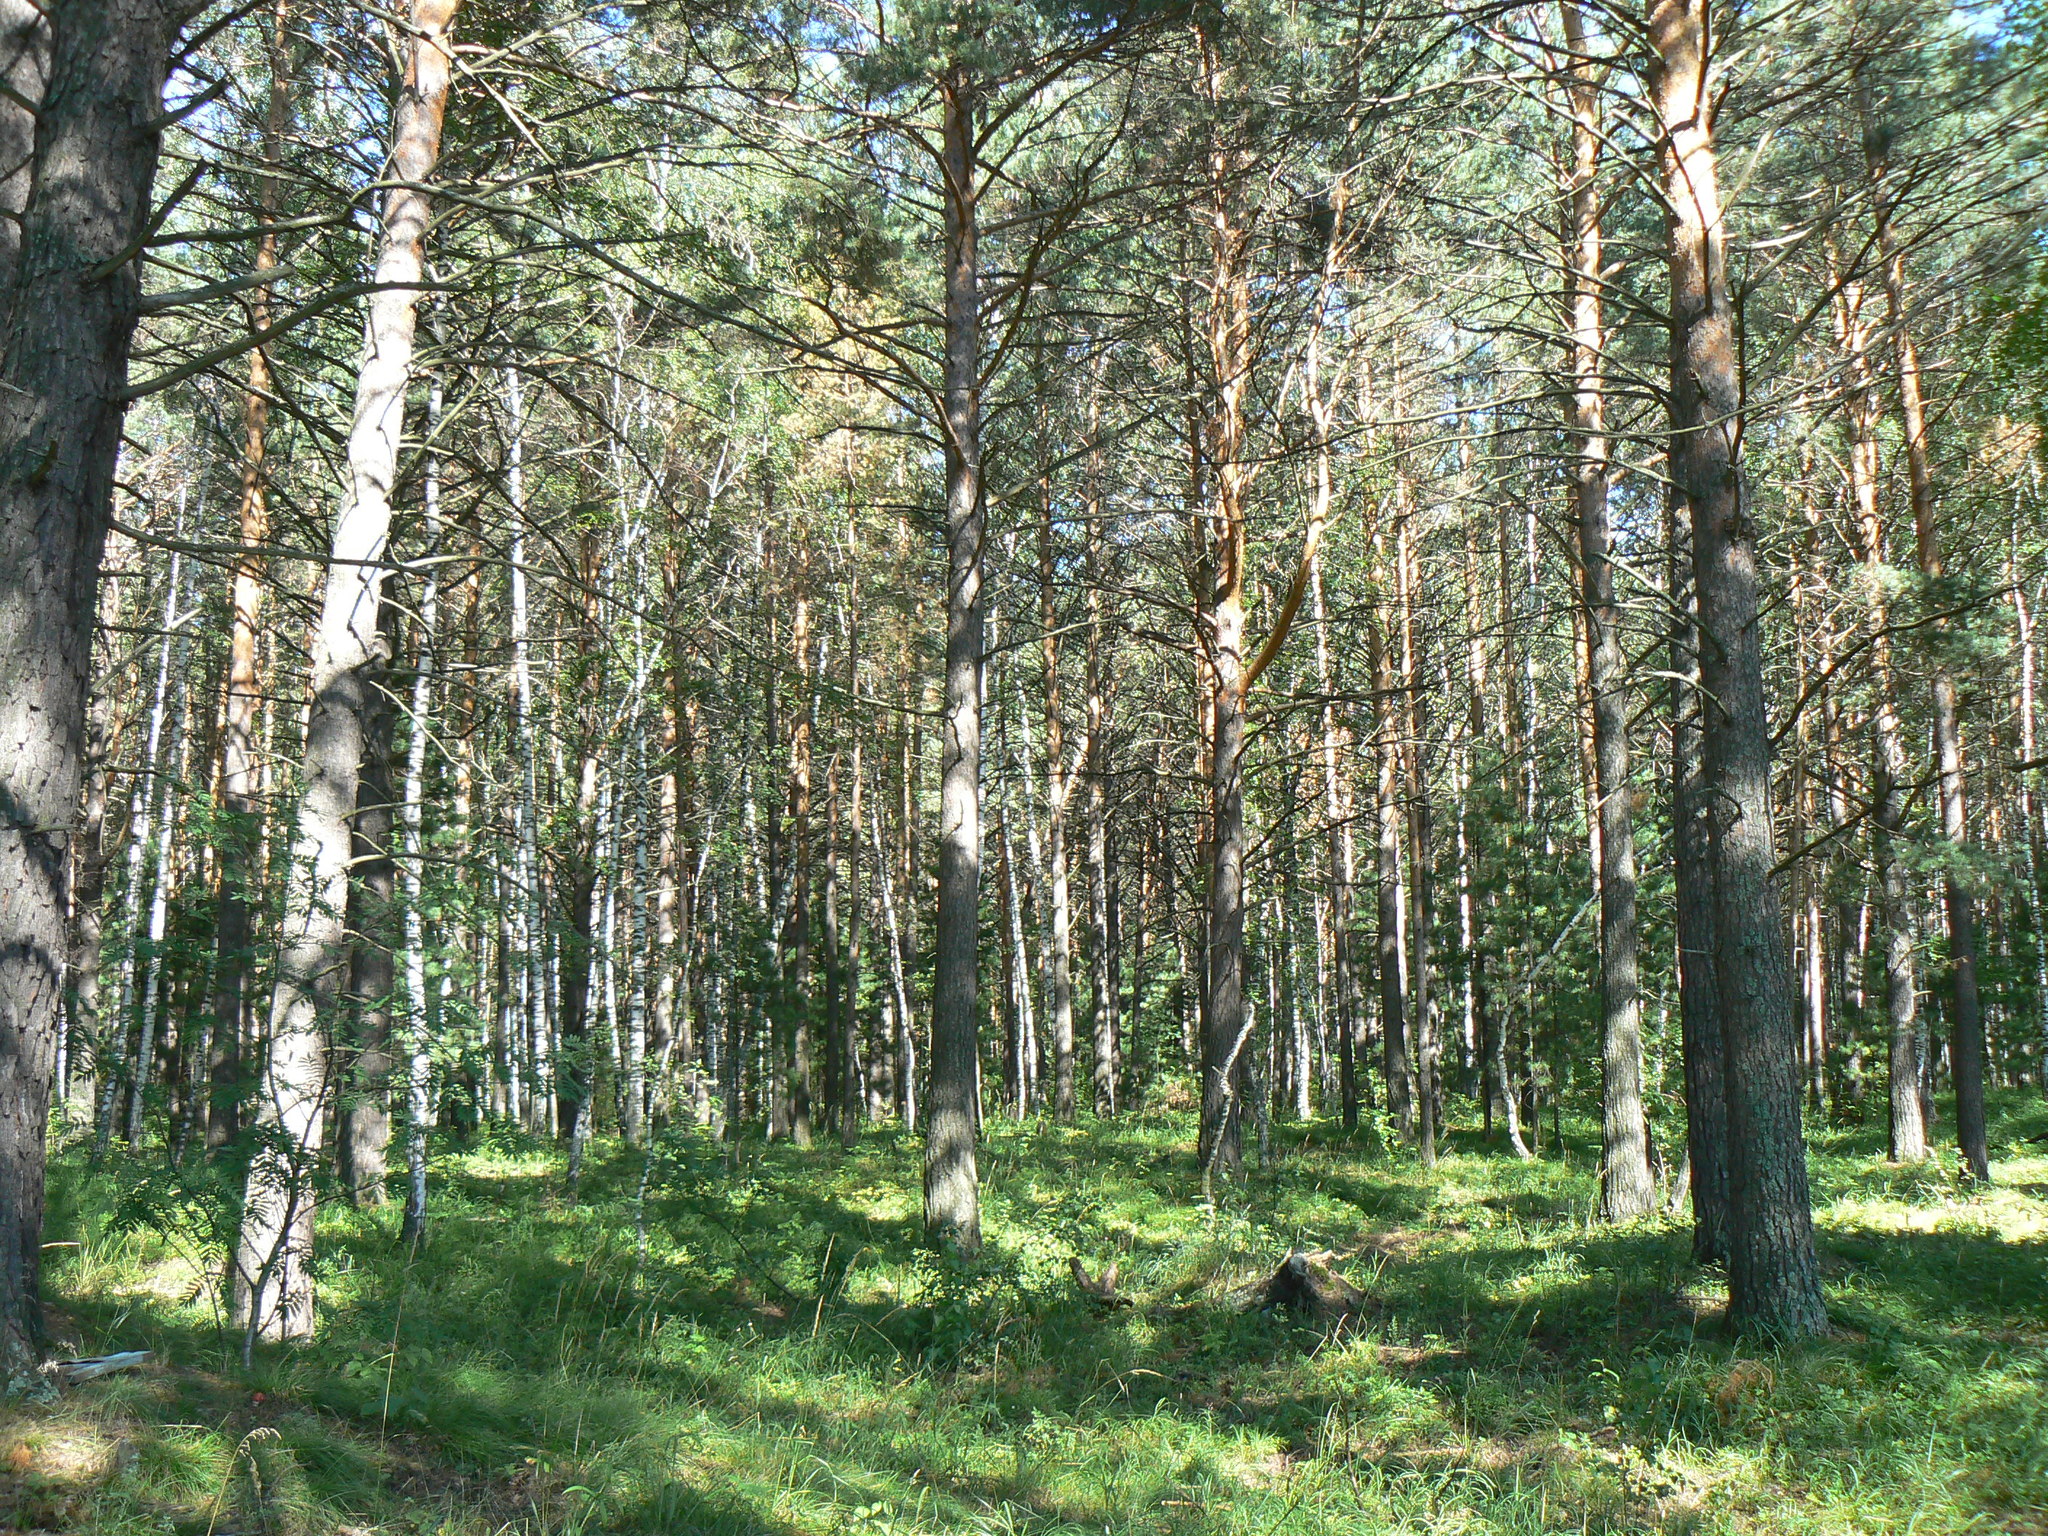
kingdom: Plantae
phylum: Tracheophyta
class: Pinopsida
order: Pinales
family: Pinaceae
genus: Pinus
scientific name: Pinus sylvestris
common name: Scots pine
